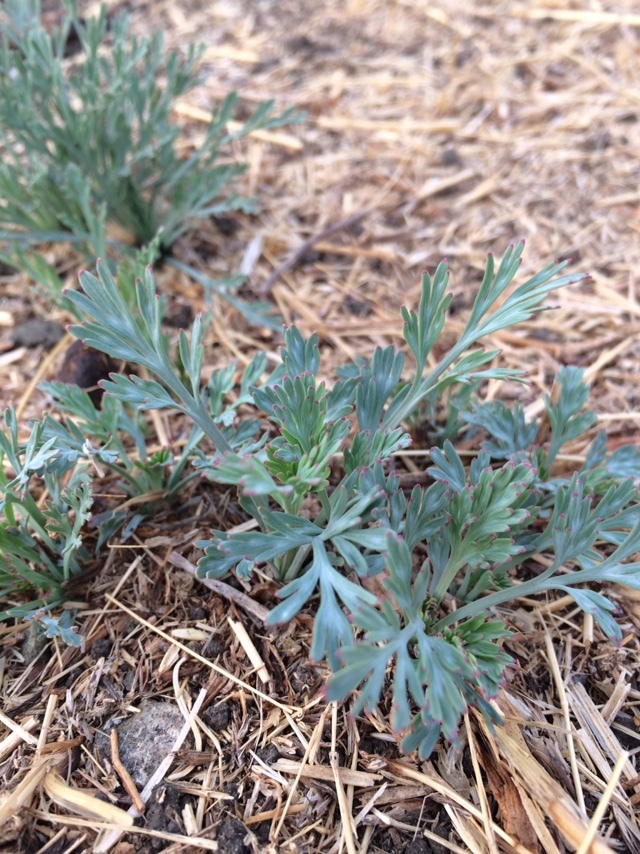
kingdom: Plantae
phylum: Tracheophyta
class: Magnoliopsida
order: Ranunculales
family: Papaveraceae
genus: Eschscholzia
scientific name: Eschscholzia californica
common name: California poppy
